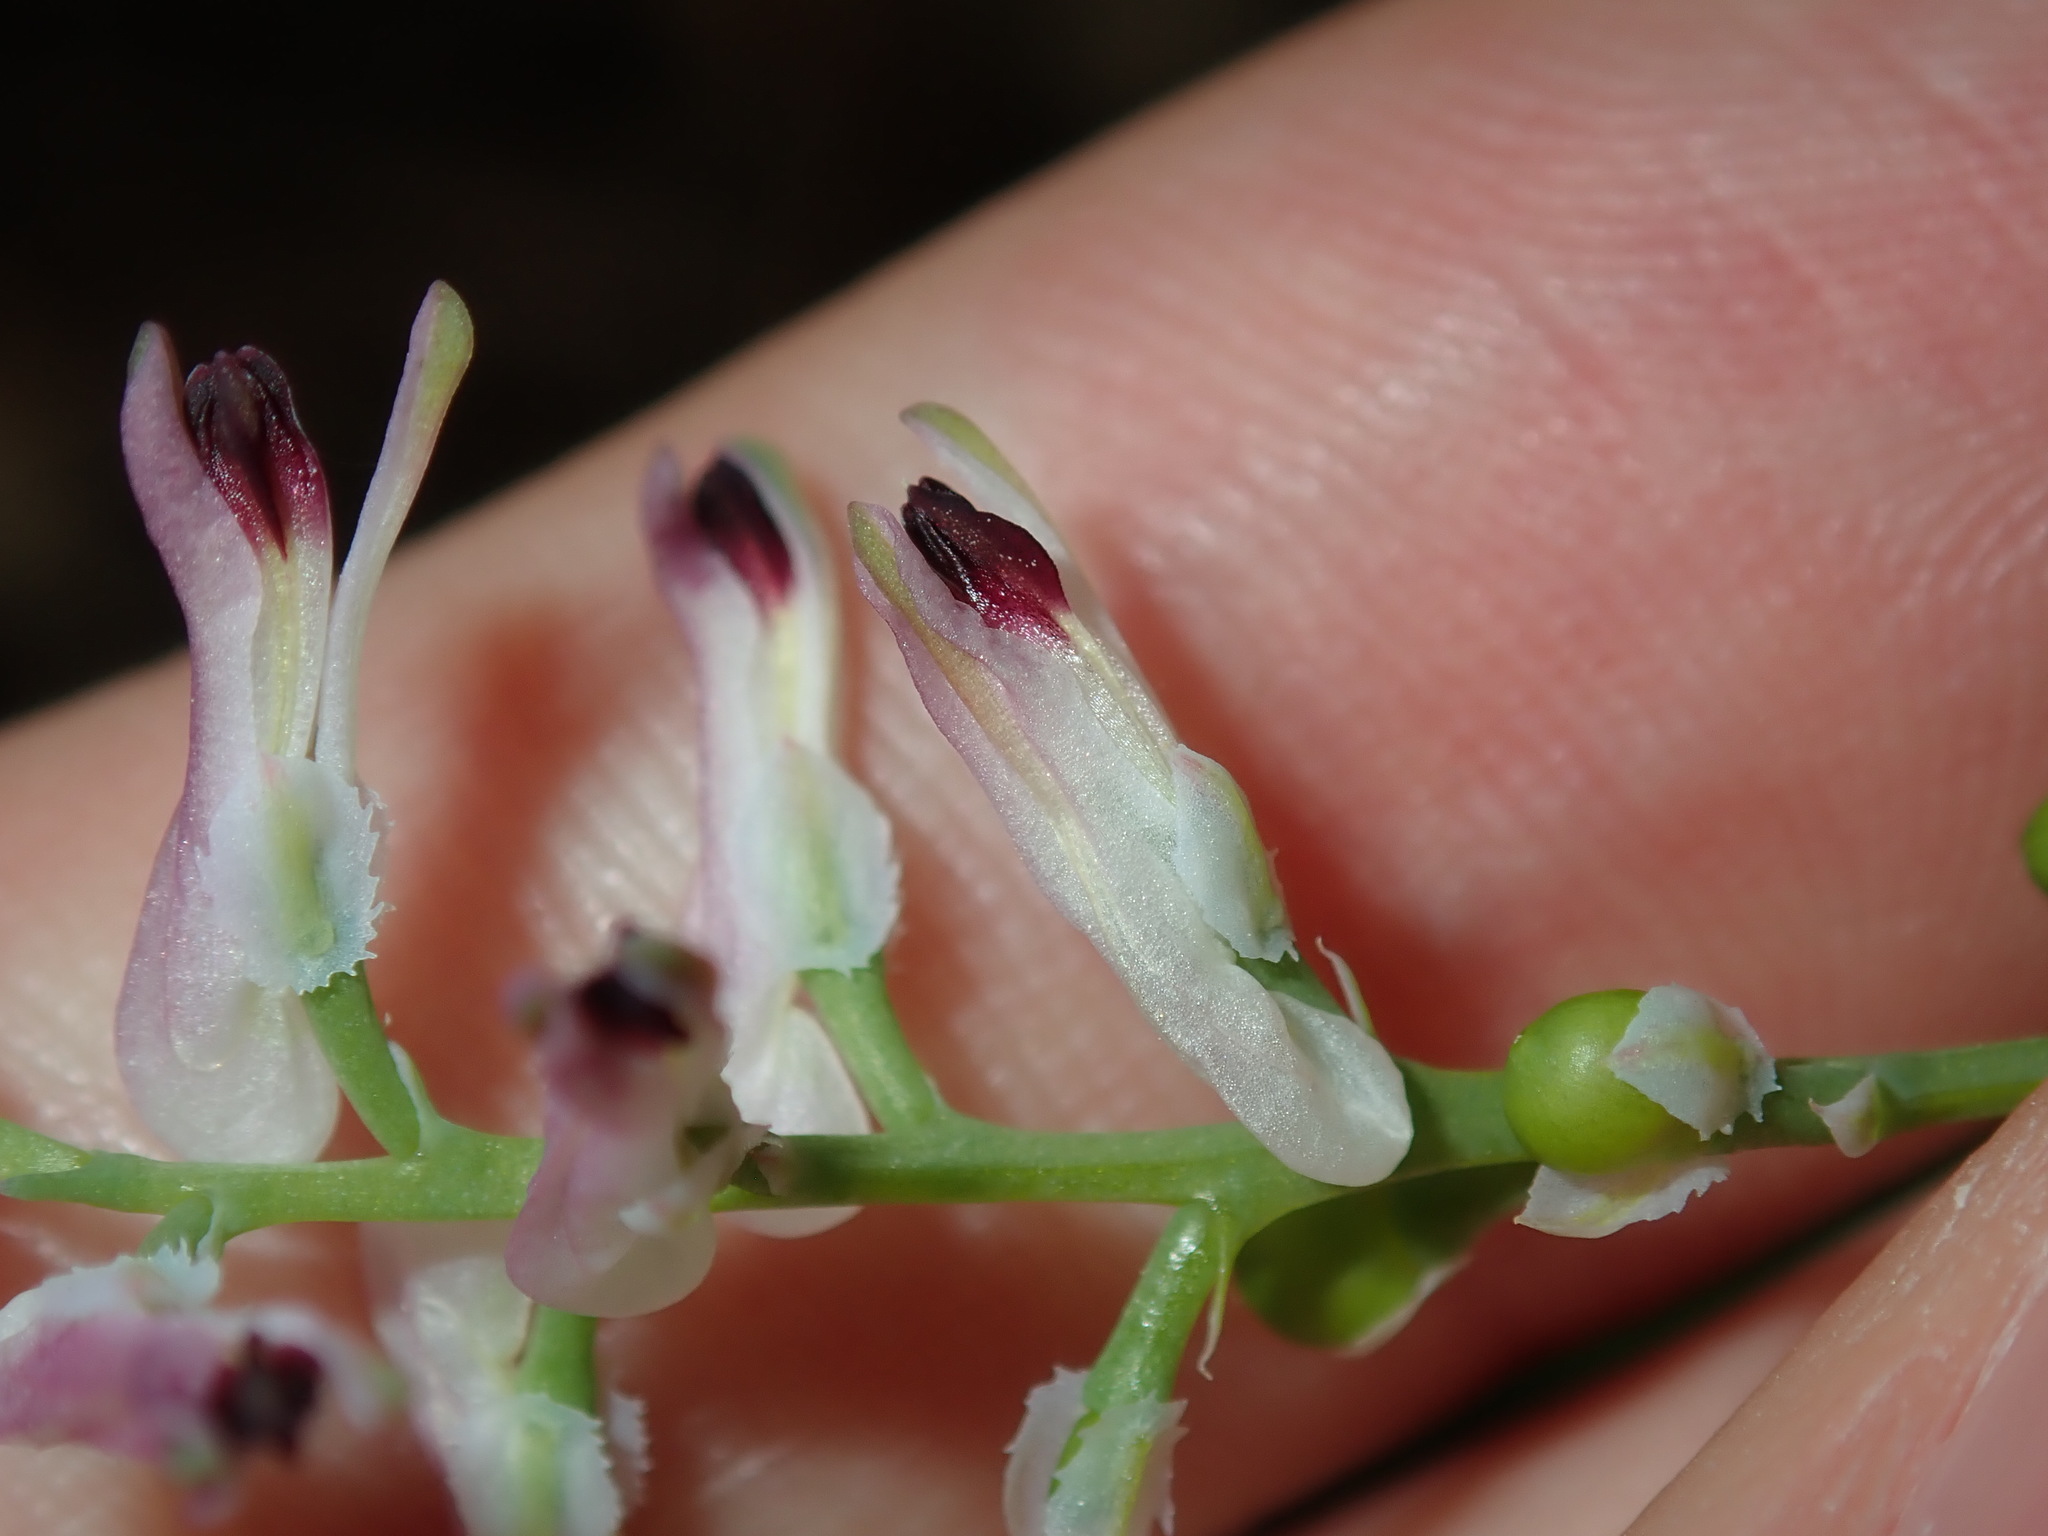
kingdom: Plantae
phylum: Tracheophyta
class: Magnoliopsida
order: Ranunculales
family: Papaveraceae
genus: Fumaria
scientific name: Fumaria bastardii
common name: Tall ramping-fumitory
